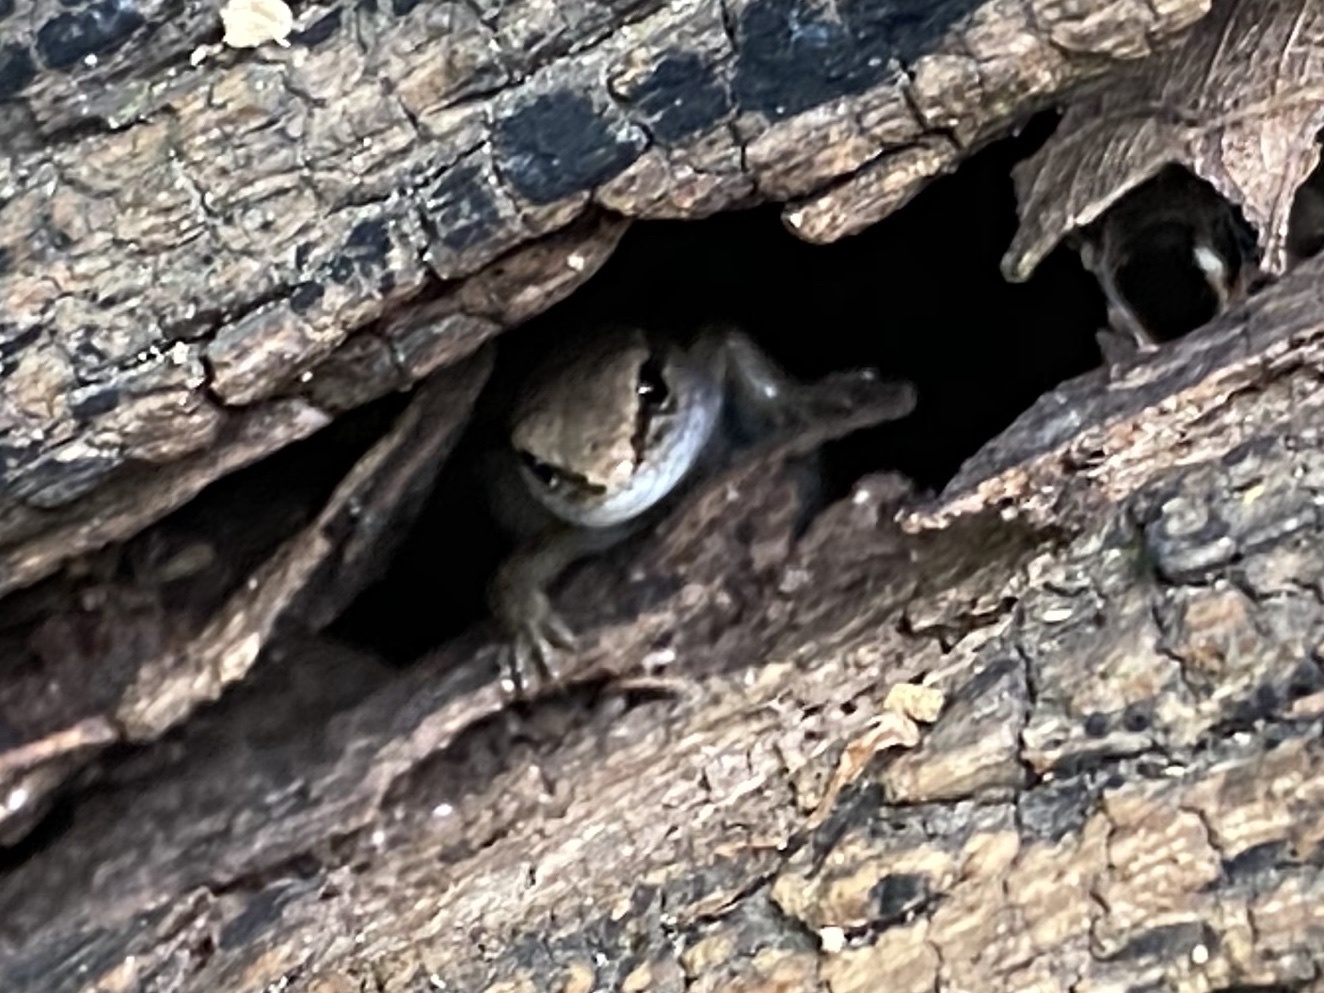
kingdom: Animalia
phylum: Chordata
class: Squamata
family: Scincidae
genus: Scincella
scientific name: Scincella lateralis
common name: Ground skink
